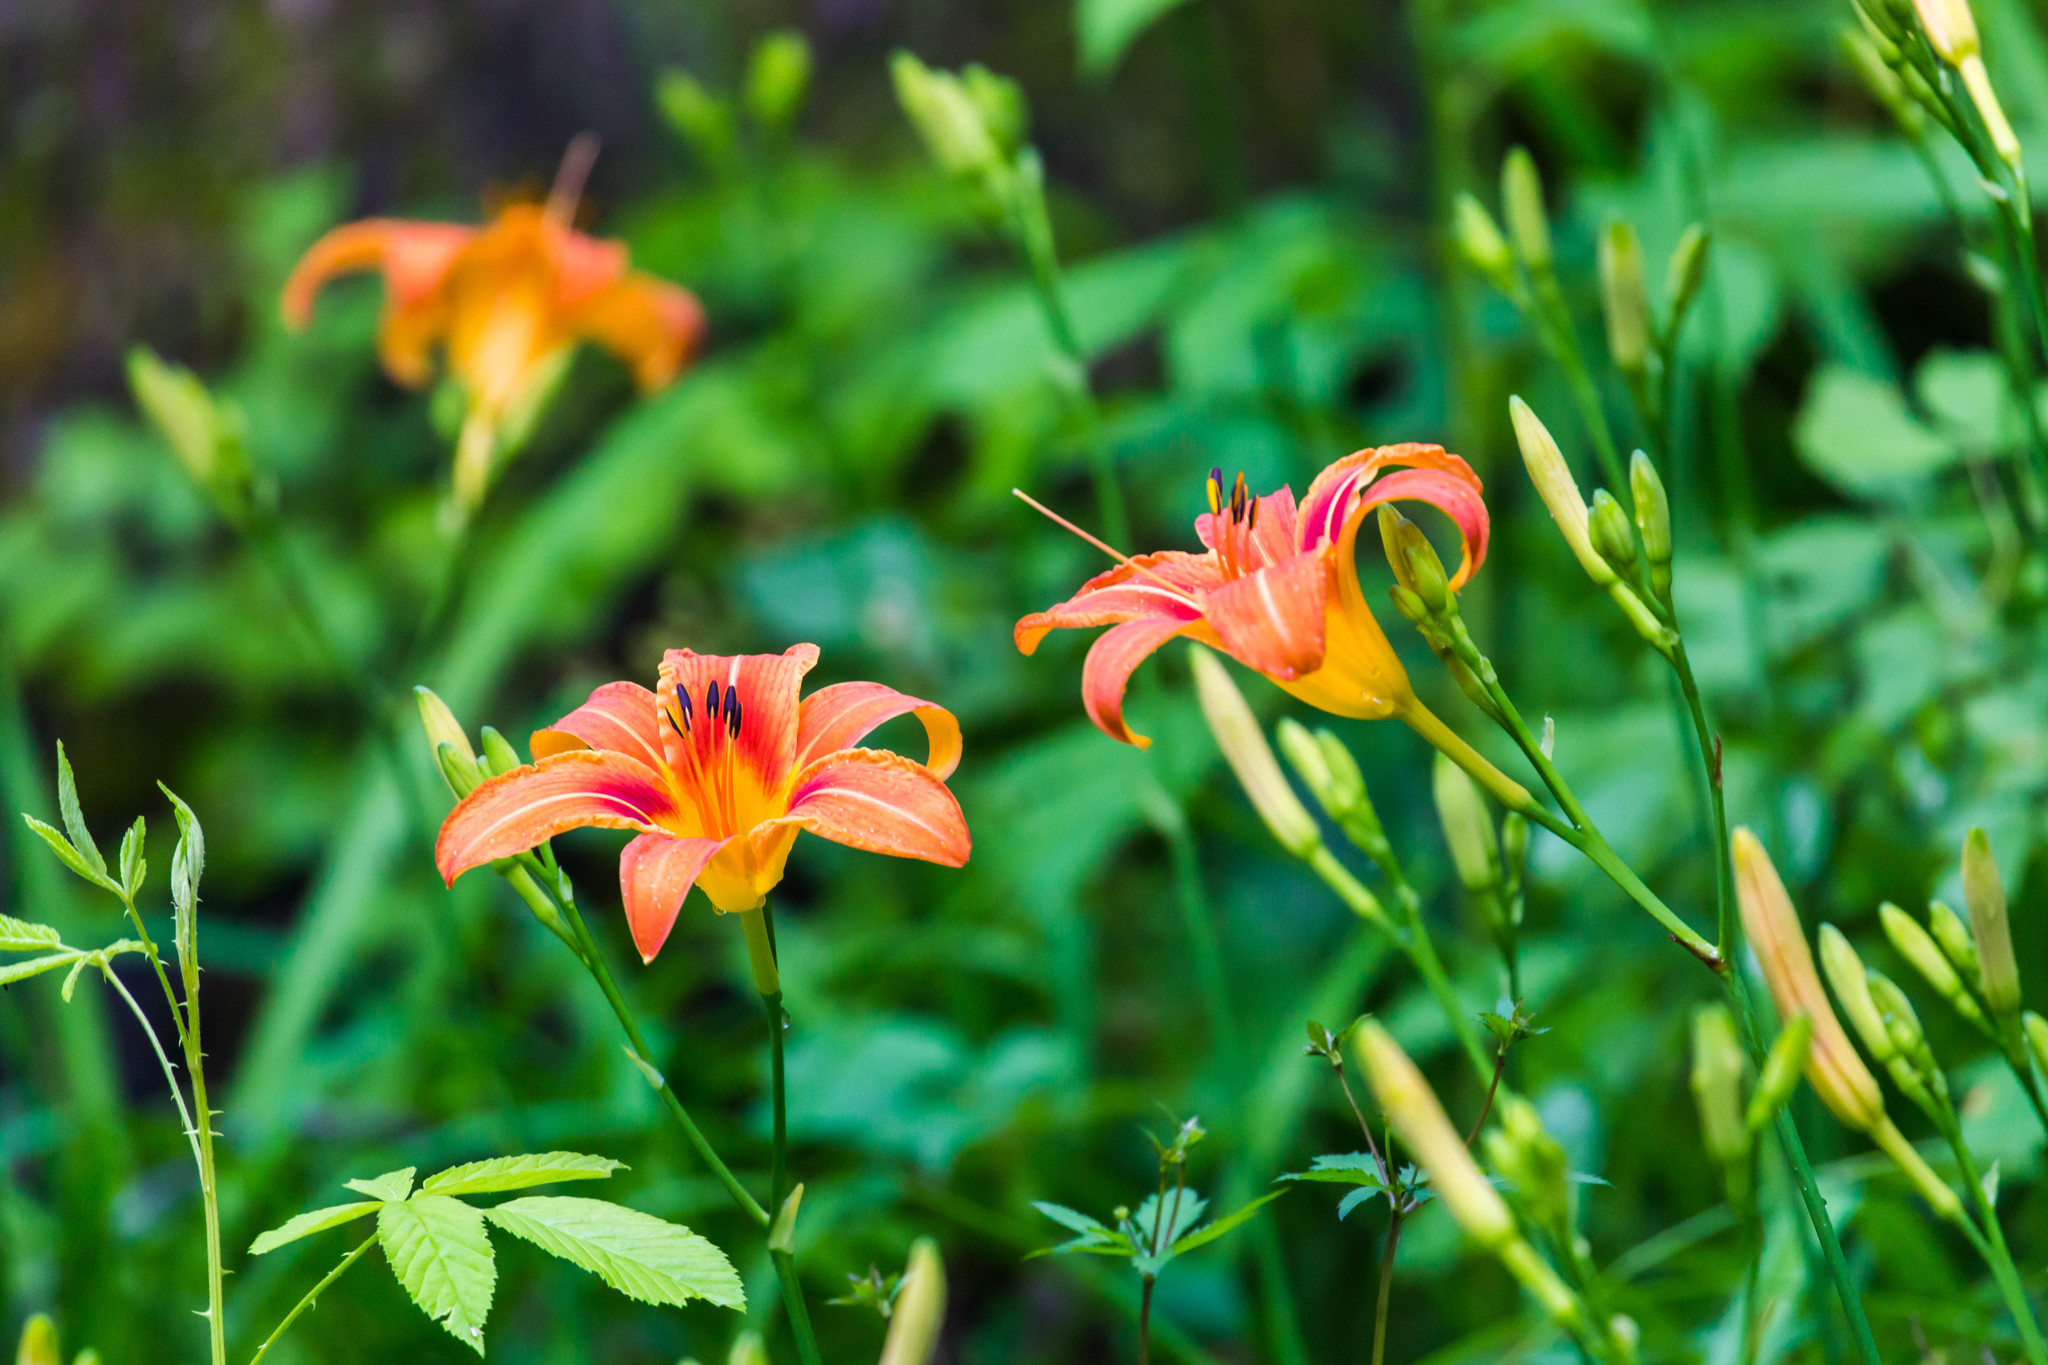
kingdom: Plantae
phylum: Tracheophyta
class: Liliopsida
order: Asparagales
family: Asphodelaceae
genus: Hemerocallis
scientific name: Hemerocallis fulva
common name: Orange day-lily
